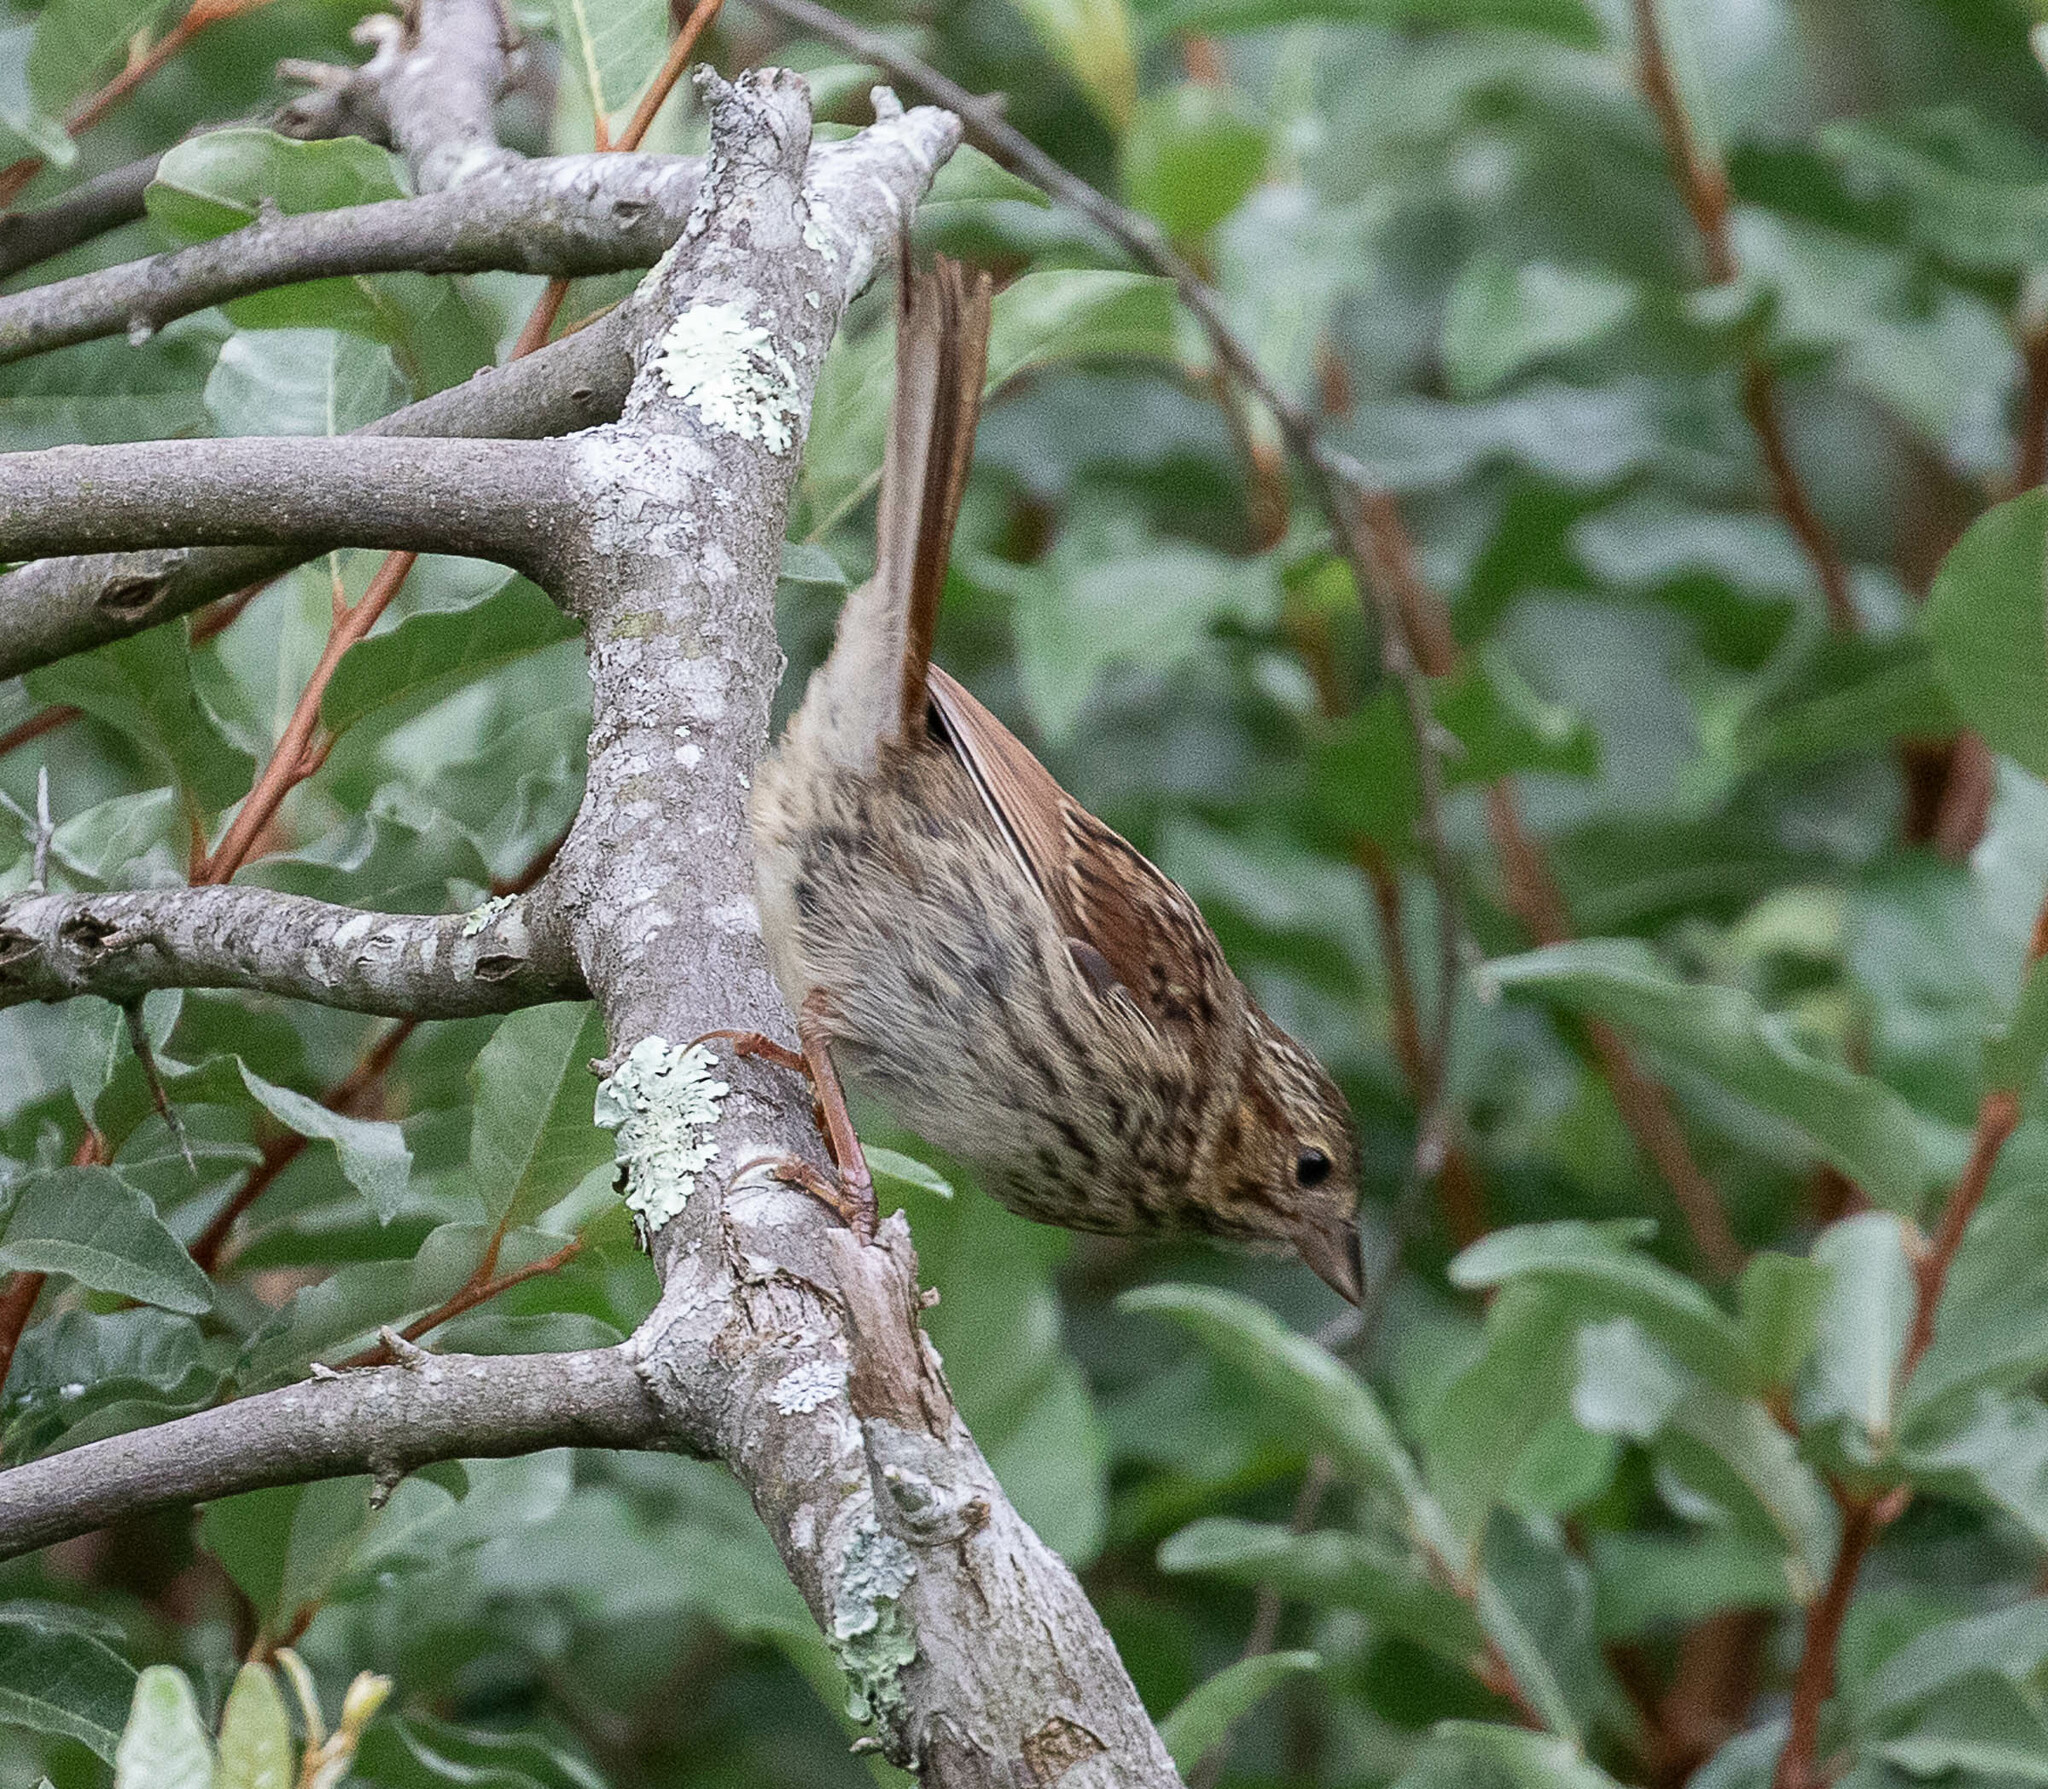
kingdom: Animalia
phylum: Chordata
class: Aves
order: Passeriformes
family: Passerellidae
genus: Melospiza
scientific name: Melospiza melodia
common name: Song sparrow
